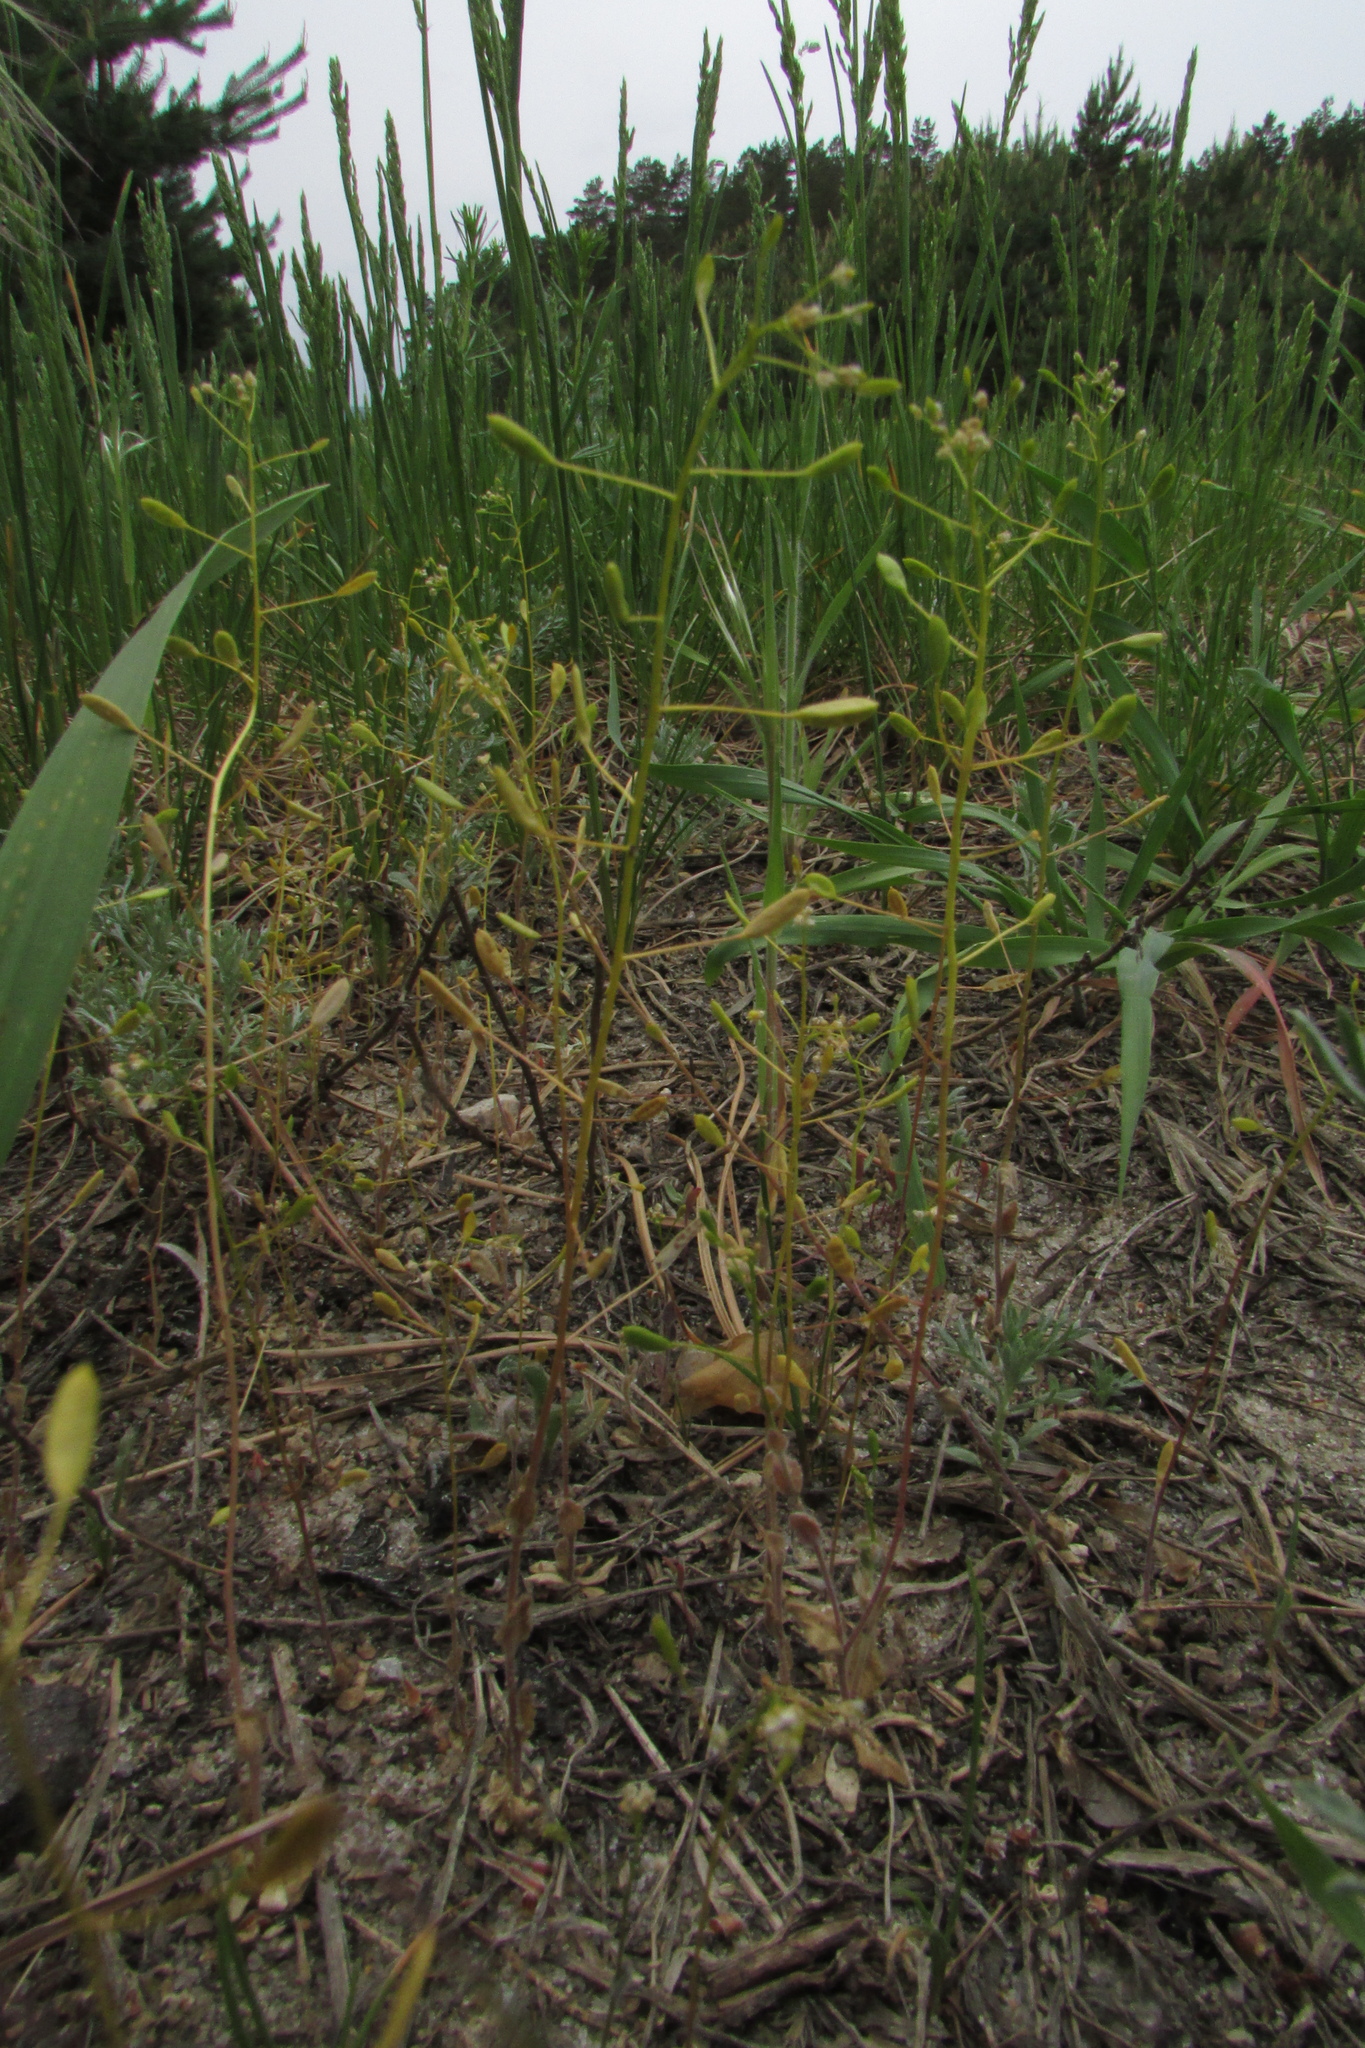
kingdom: Plantae
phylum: Tracheophyta
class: Magnoliopsida
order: Brassicales
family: Brassicaceae
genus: Draba
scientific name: Draba nemorosa
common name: Wood whitlow-grass
